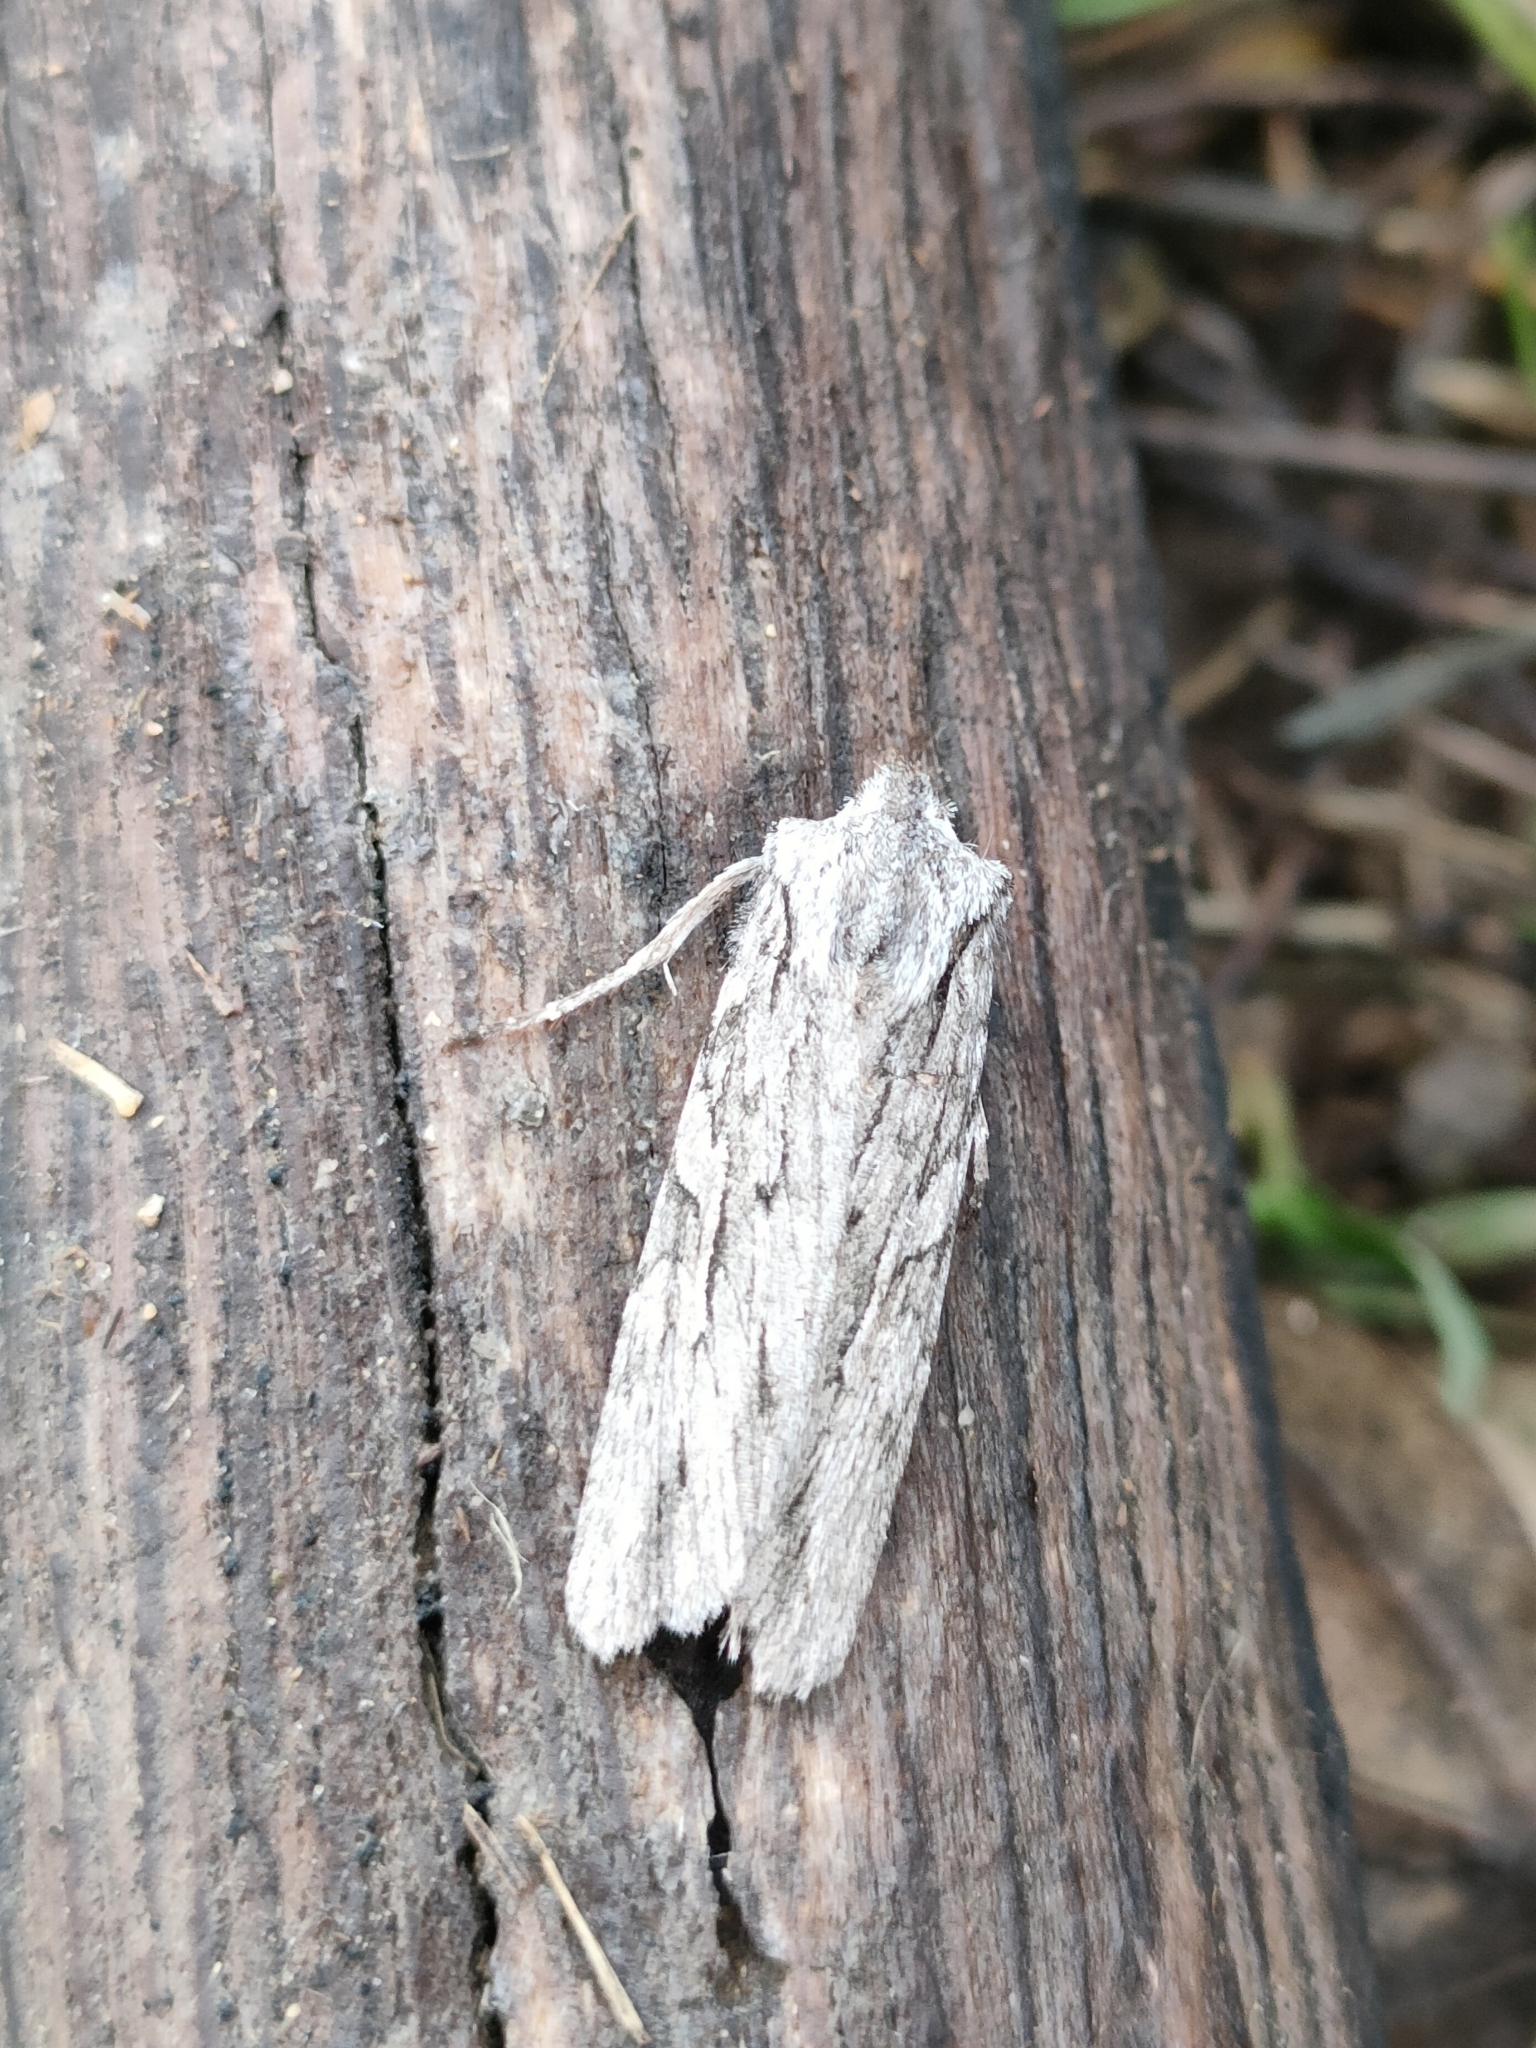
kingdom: Animalia
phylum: Arthropoda
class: Insecta
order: Lepidoptera
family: Noctuidae
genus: Lithophane
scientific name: Lithophane leautieri
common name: Blair's shoulder-knot
